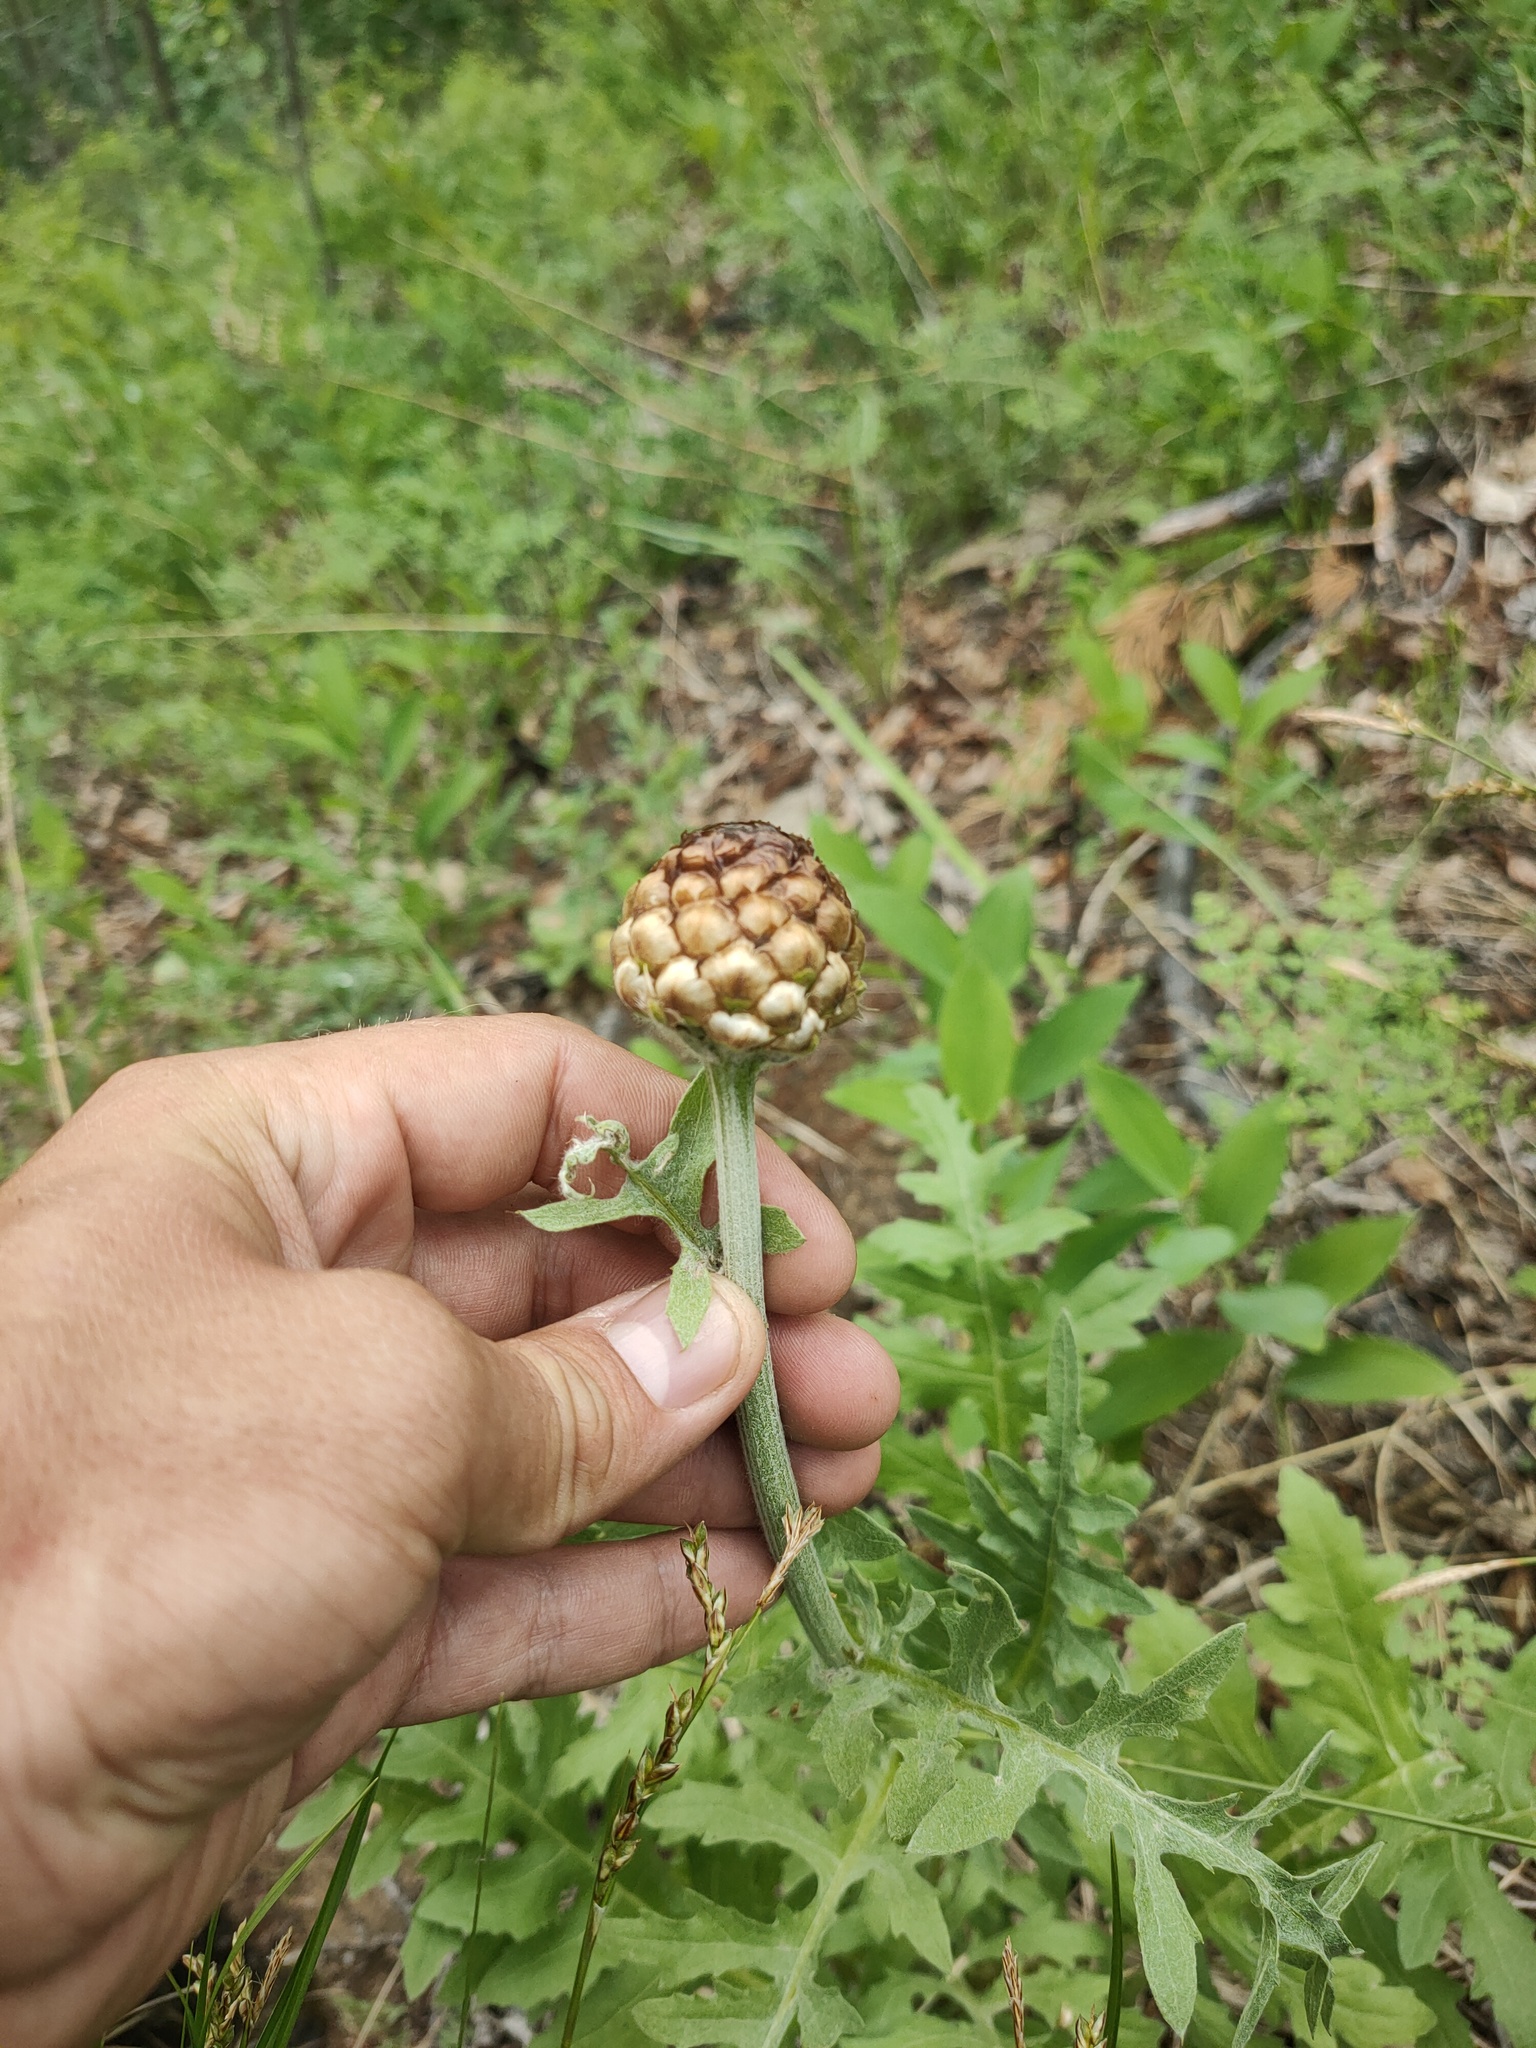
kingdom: Plantae
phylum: Tracheophyta
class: Magnoliopsida
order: Asterales
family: Asteraceae
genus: Leuzea
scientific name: Leuzea uniflora
